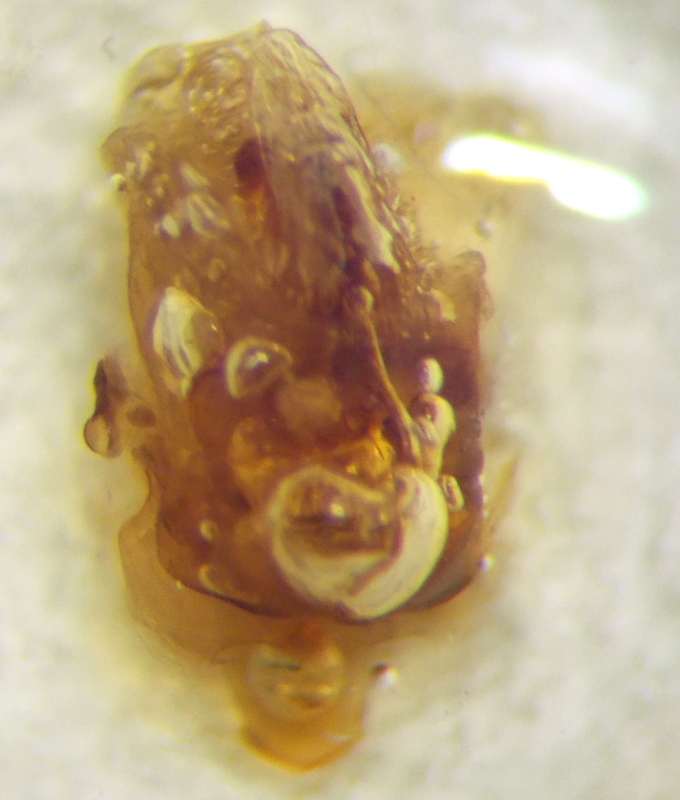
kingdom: Animalia
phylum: Arthropoda
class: Insecta
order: Hemiptera
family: Scutelleridae
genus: Odontotarsus
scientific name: Odontotarsus robustus
